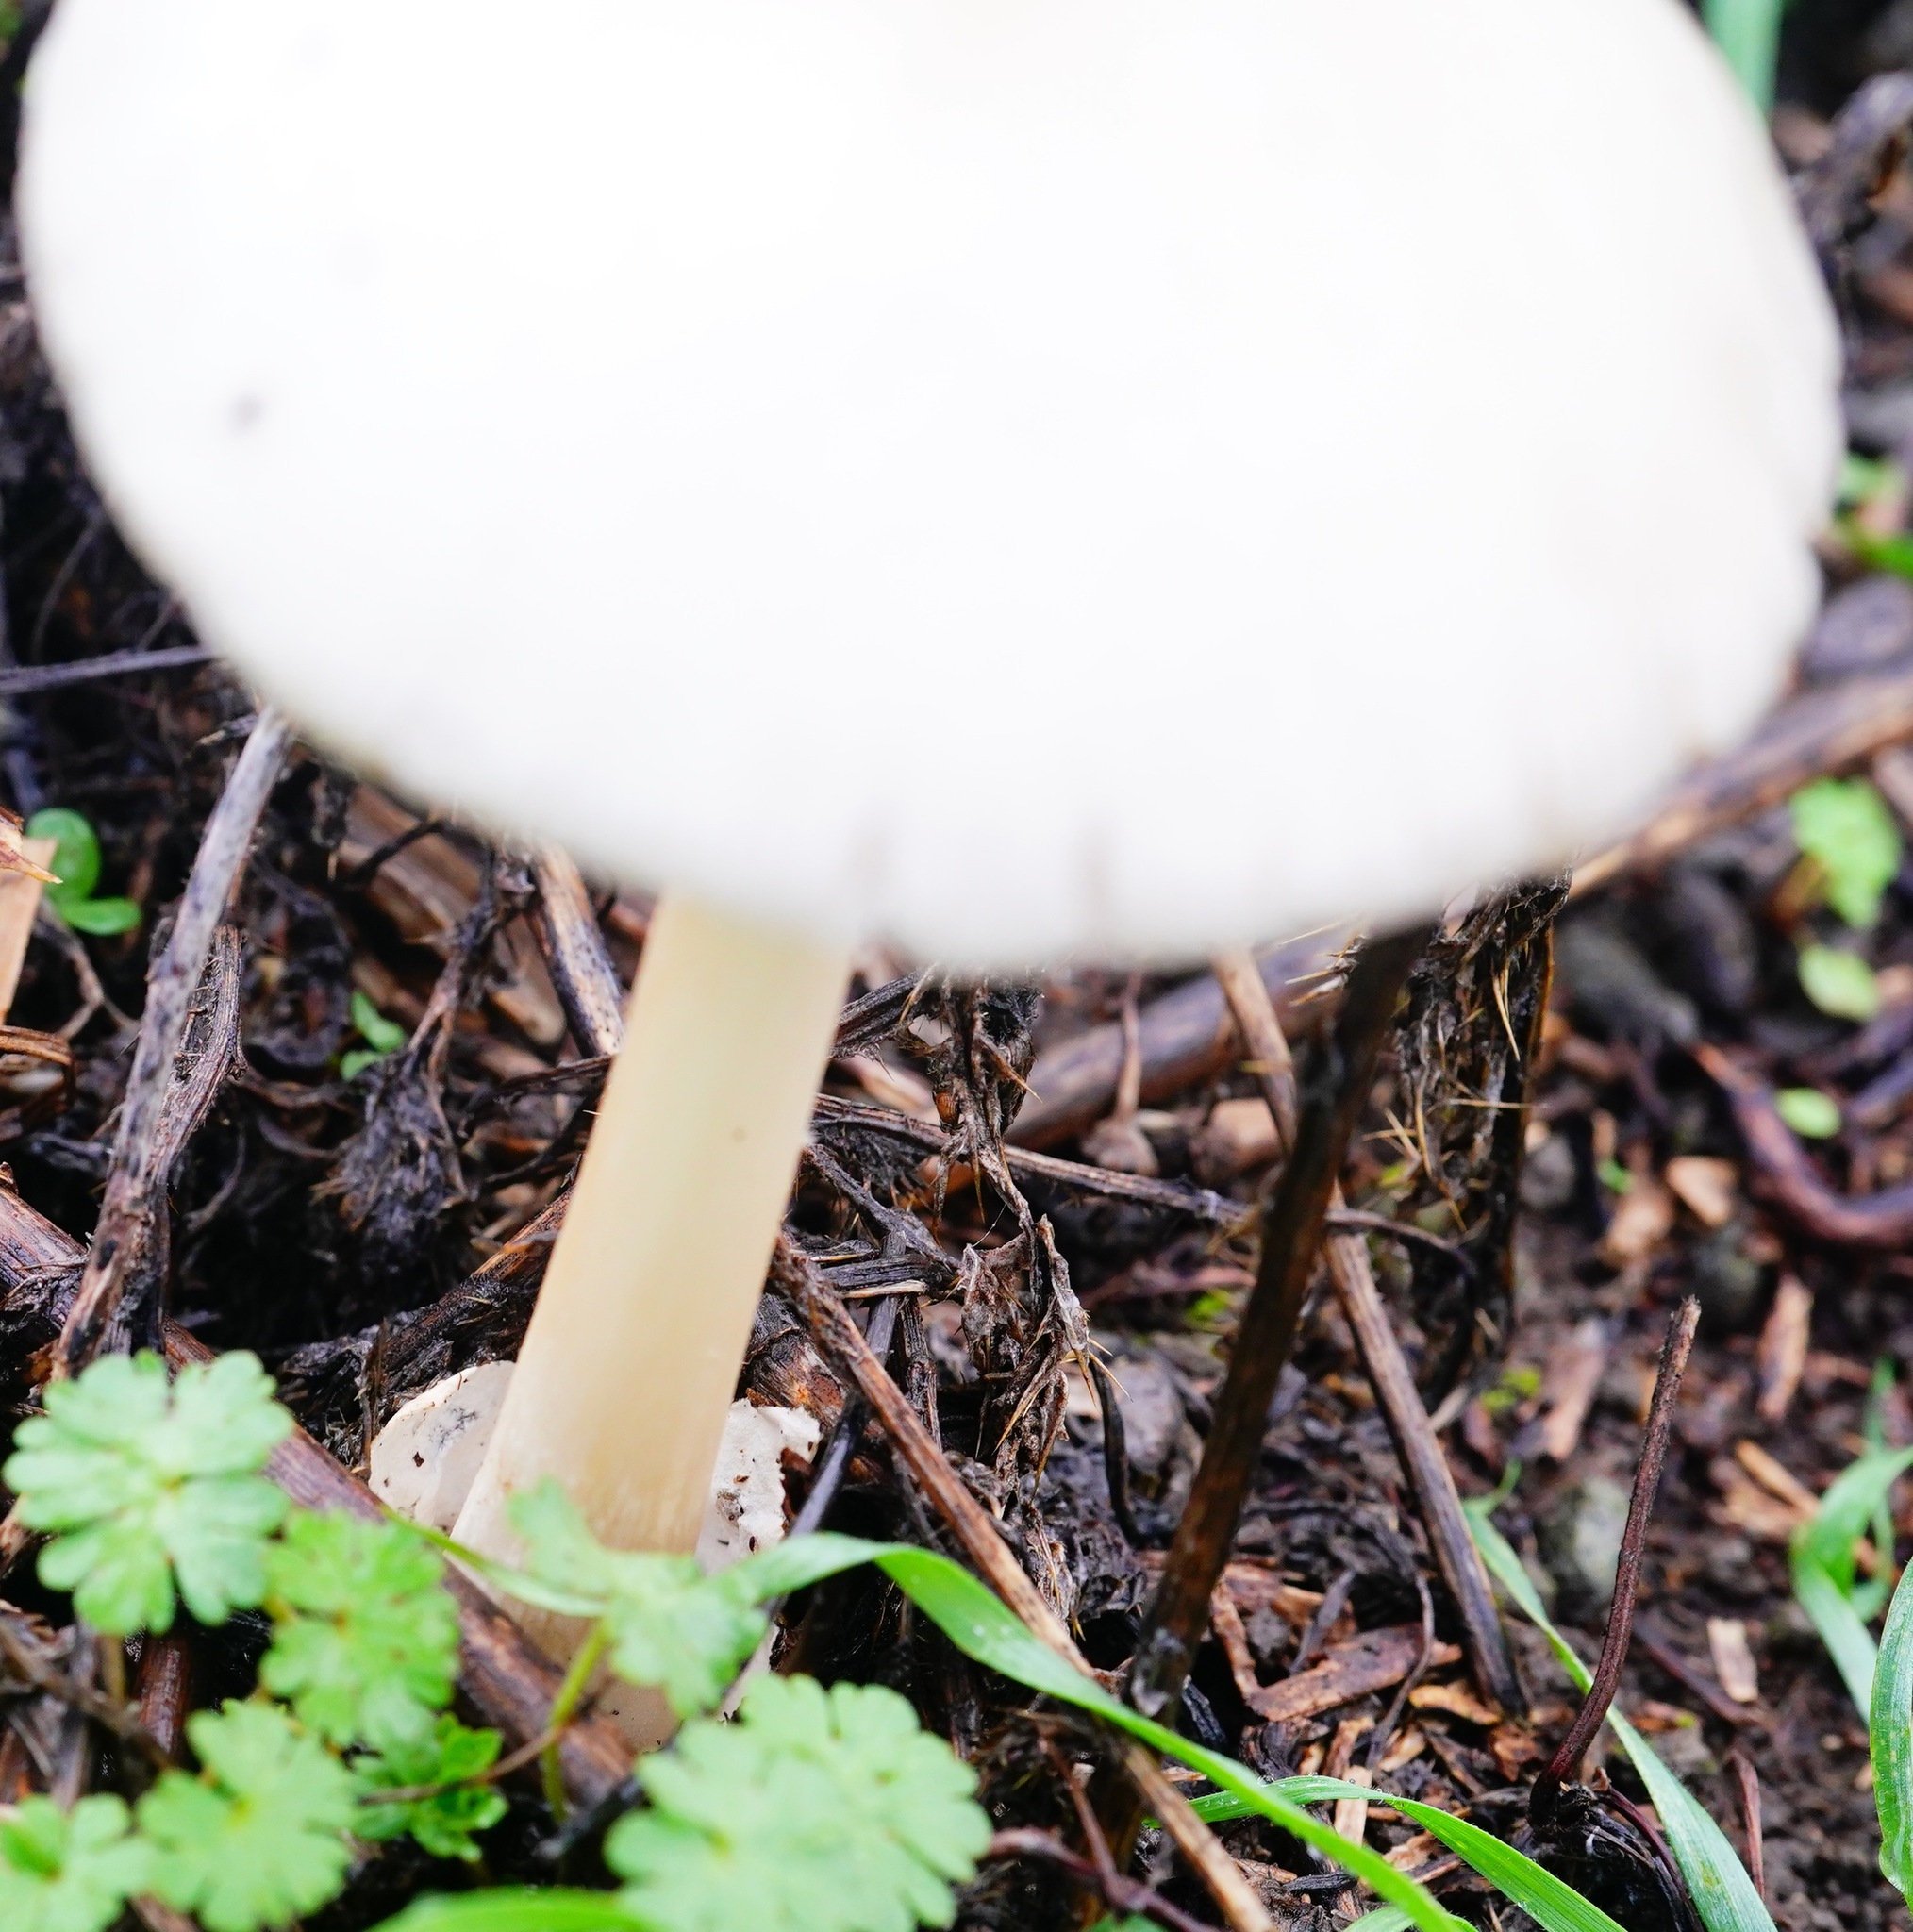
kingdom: Fungi
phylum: Basidiomycota
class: Agaricomycetes
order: Agaricales
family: Pluteaceae
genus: Volvopluteus
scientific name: Volvopluteus gloiocephalus
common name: Stubble rosegill
